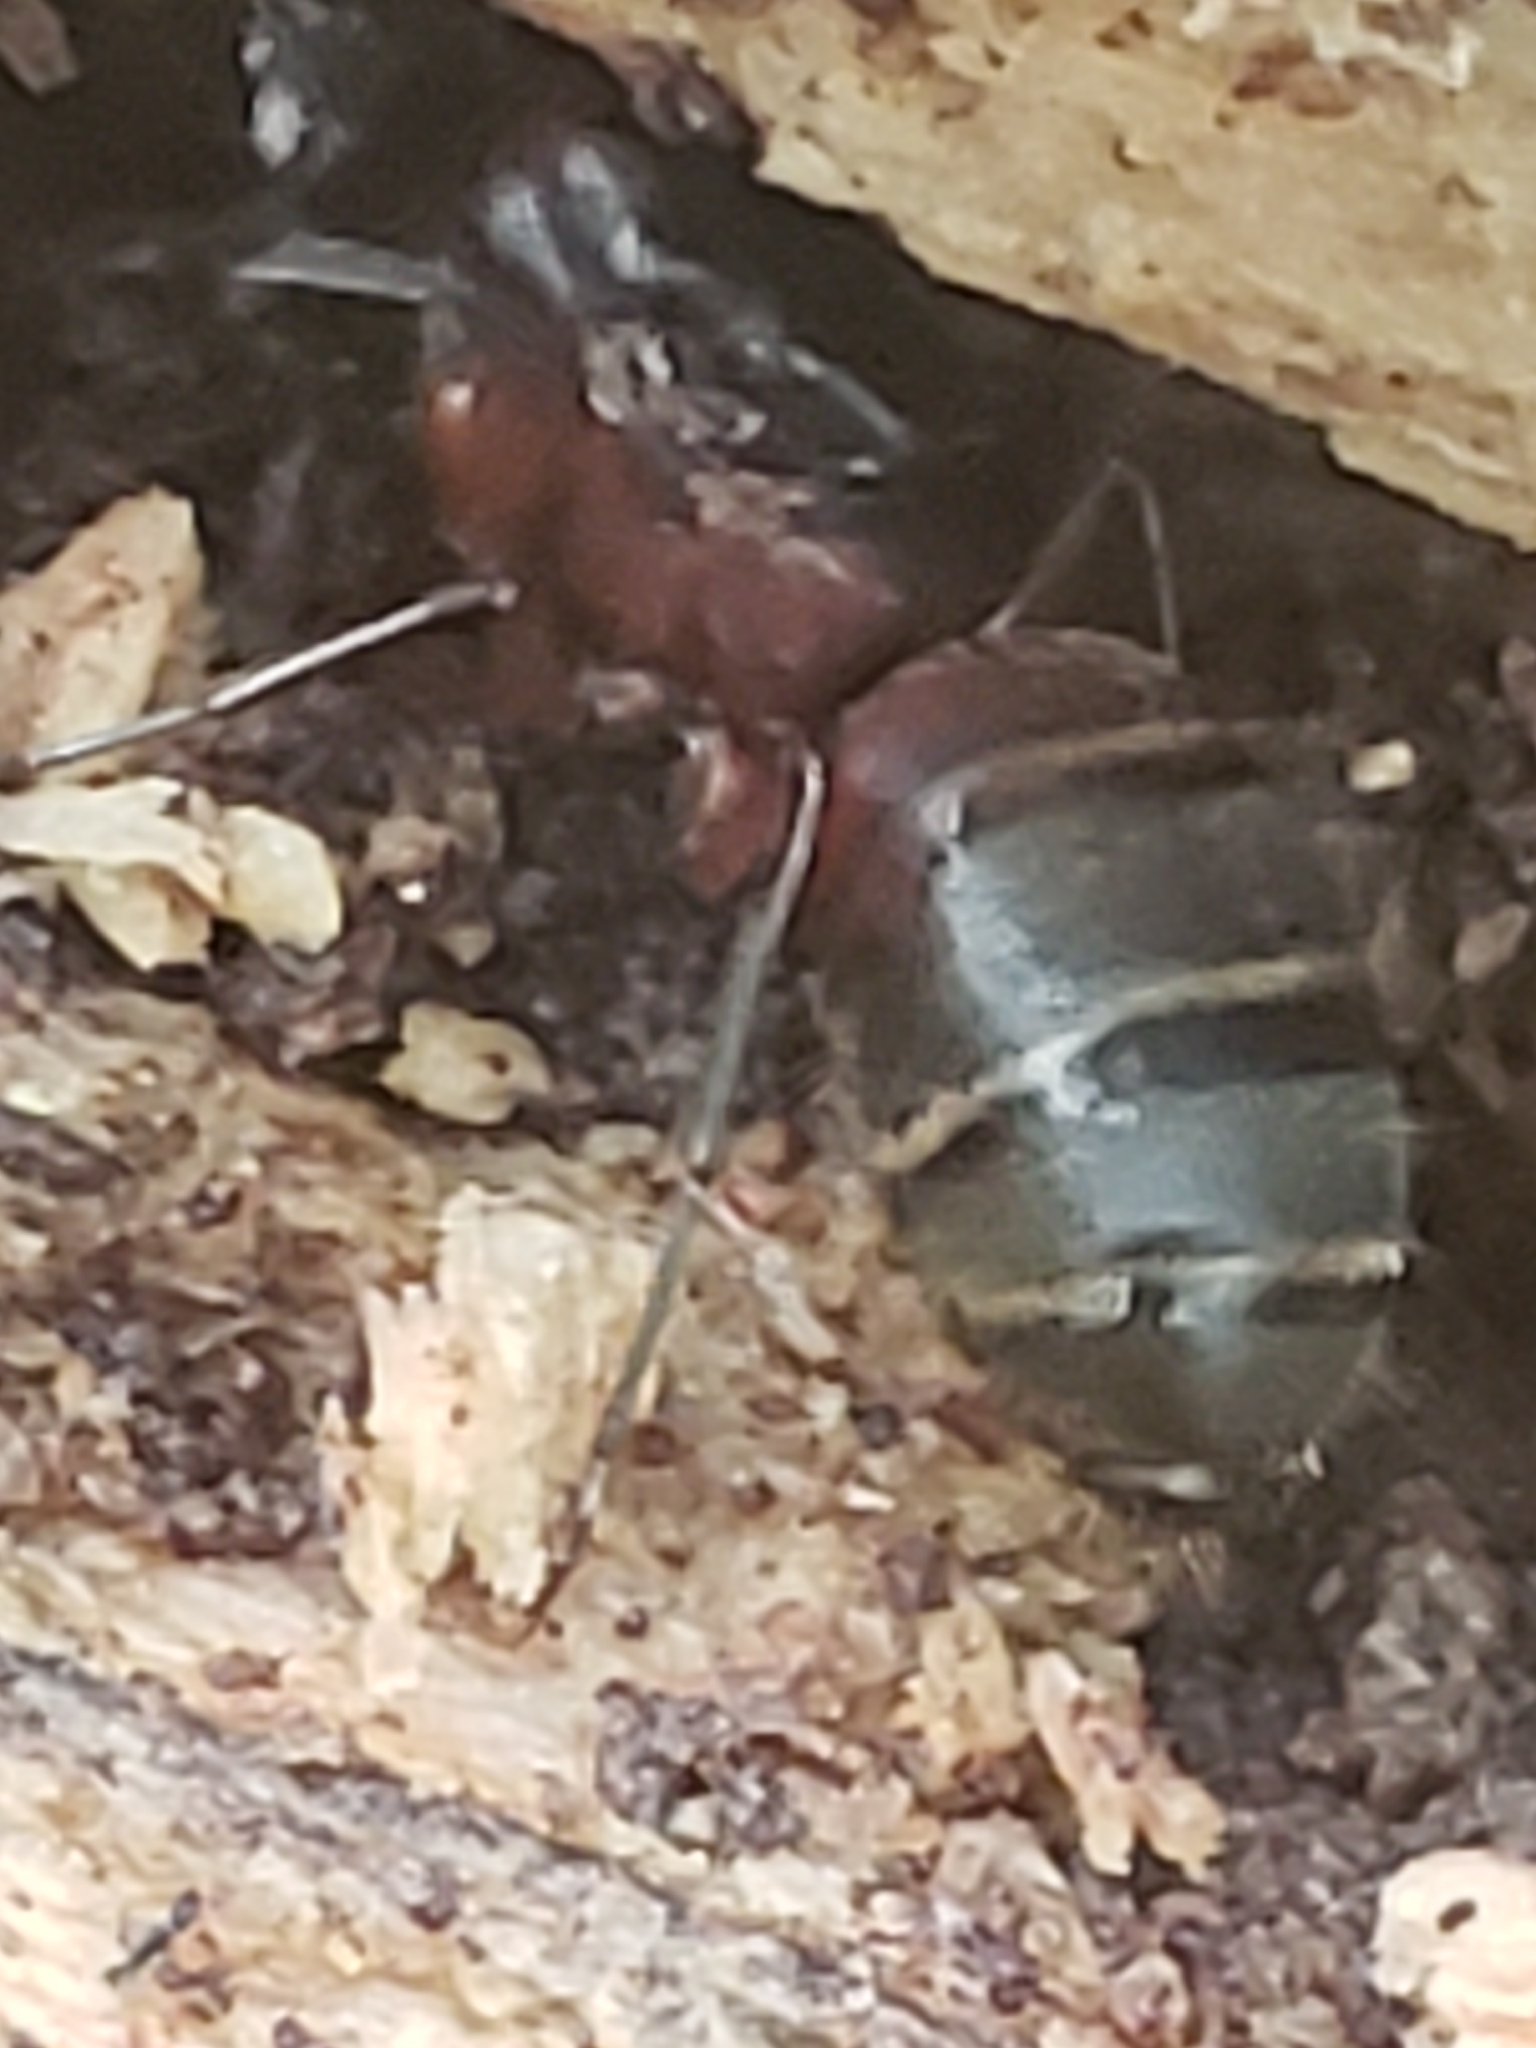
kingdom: Animalia
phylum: Arthropoda
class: Insecta
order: Hymenoptera
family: Formicidae
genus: Camponotus
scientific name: Camponotus chromaiodes
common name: Red carpenter ant
